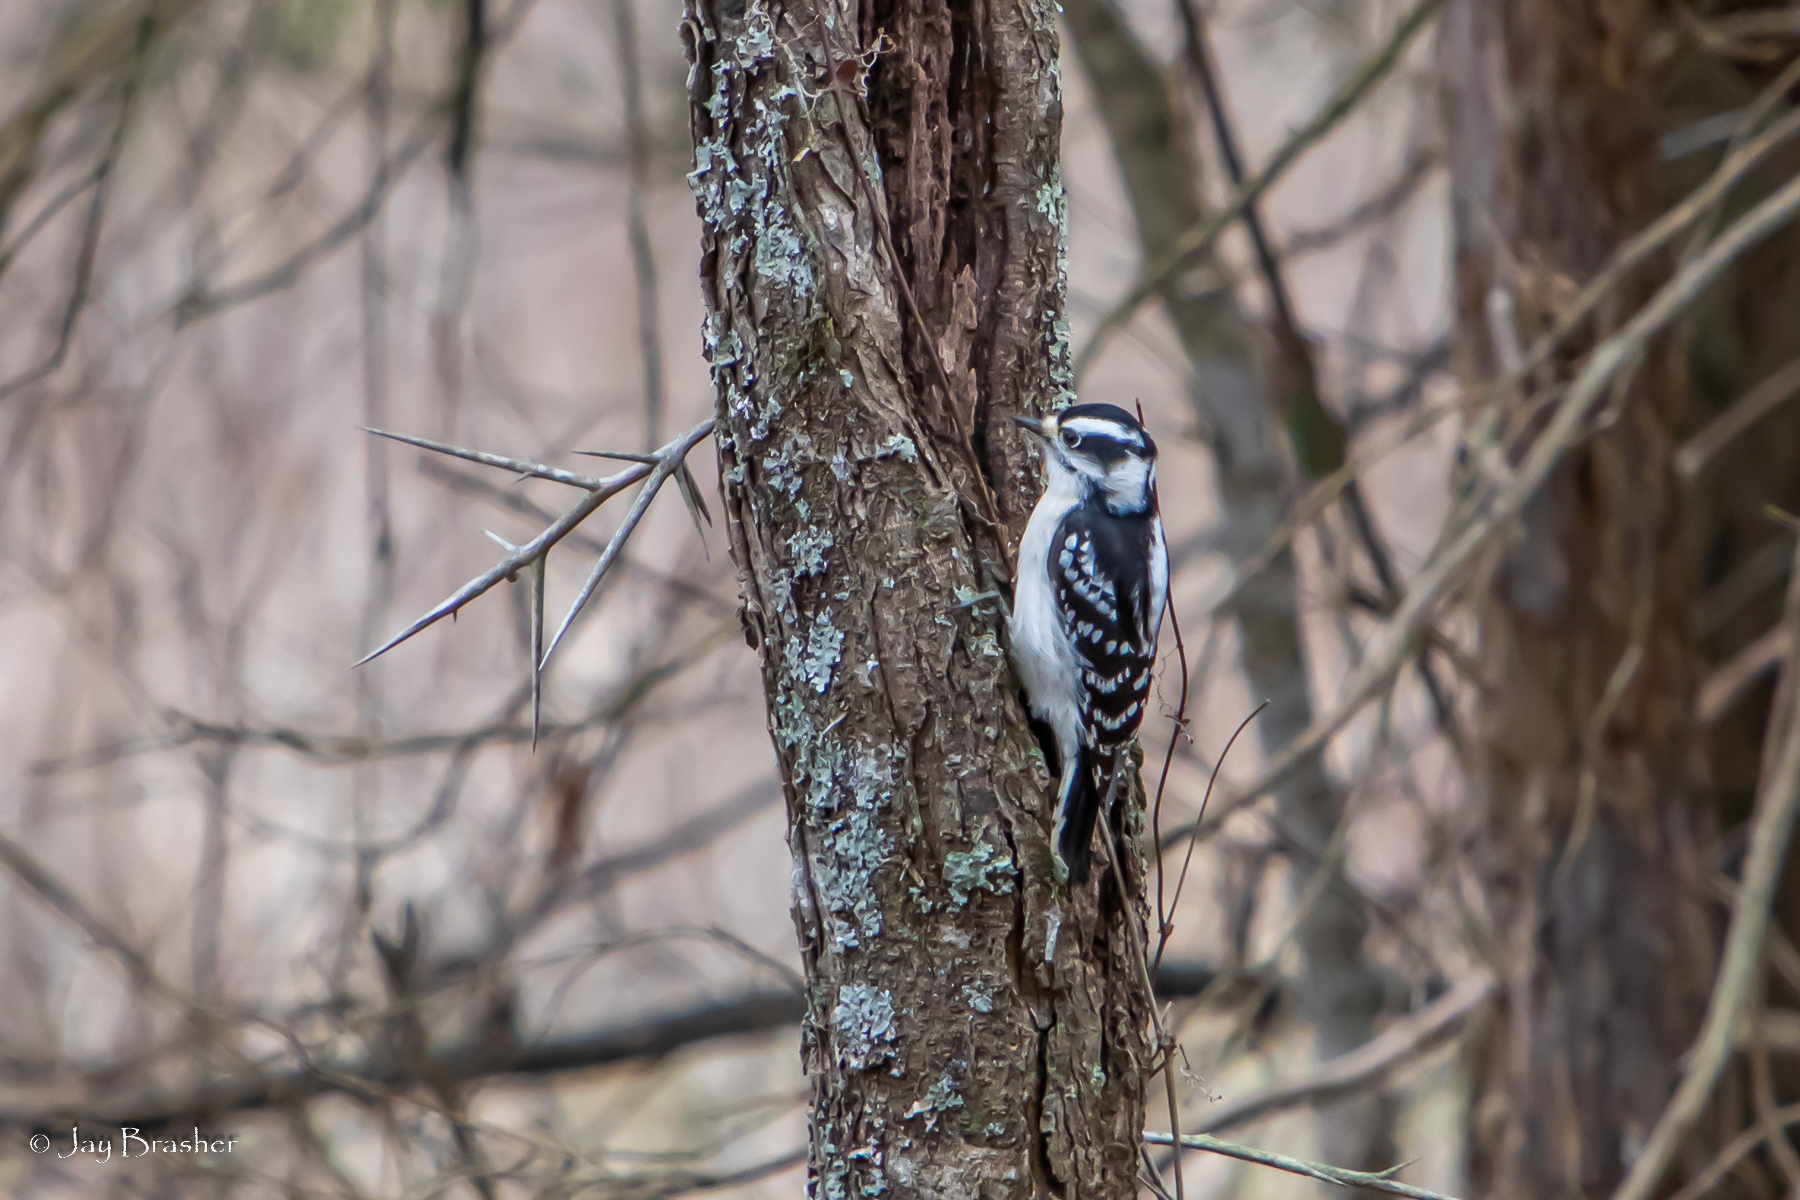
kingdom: Animalia
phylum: Chordata
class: Aves
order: Piciformes
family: Picidae
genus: Dryobates
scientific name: Dryobates pubescens
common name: Downy woodpecker
